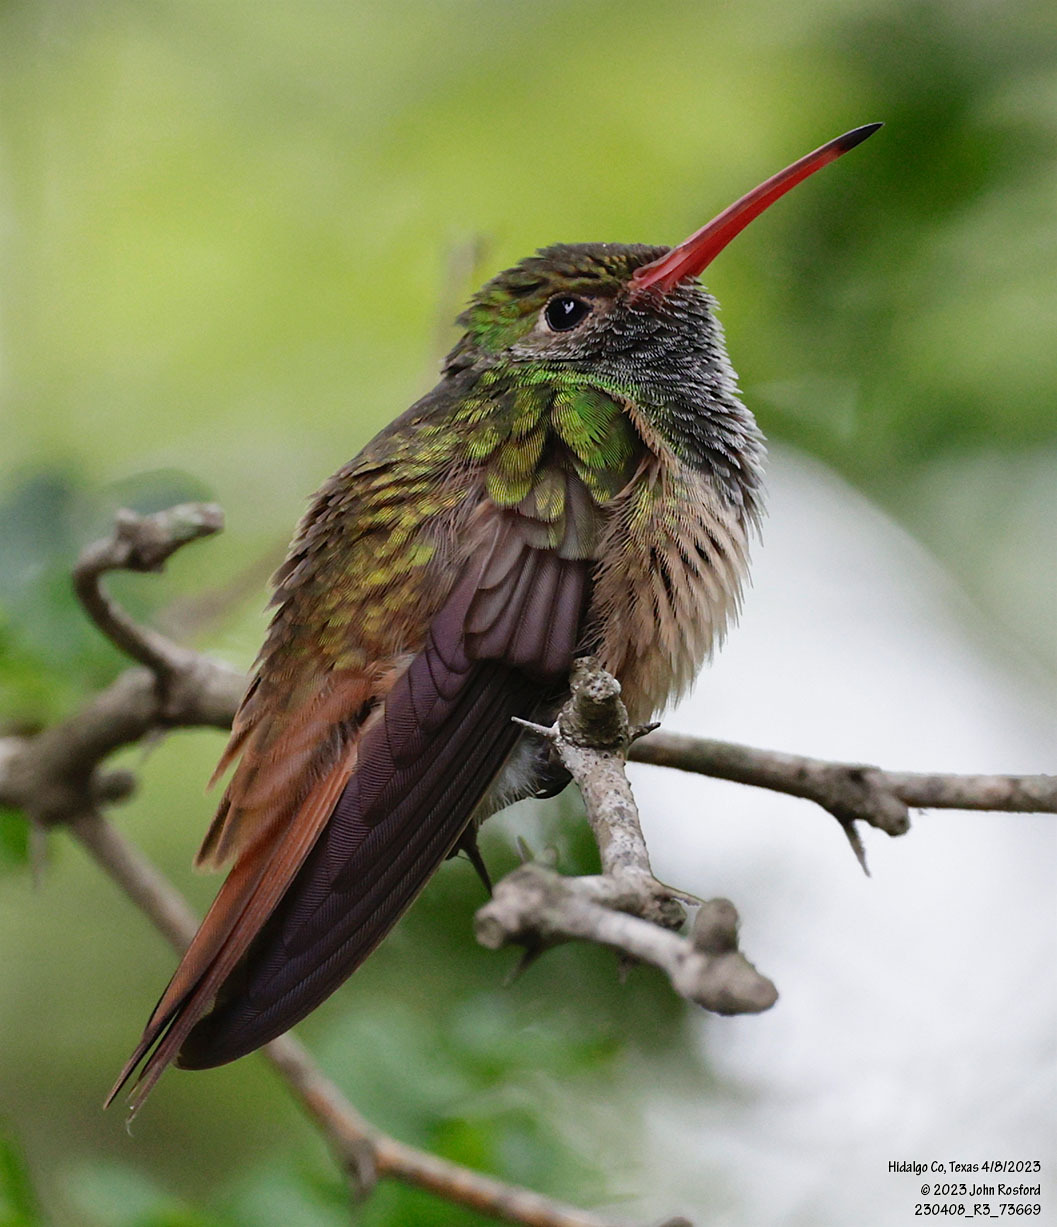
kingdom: Animalia
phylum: Chordata
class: Aves
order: Apodiformes
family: Trochilidae
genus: Amazilia
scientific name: Amazilia yucatanensis
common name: Buff-bellied hummingbird
